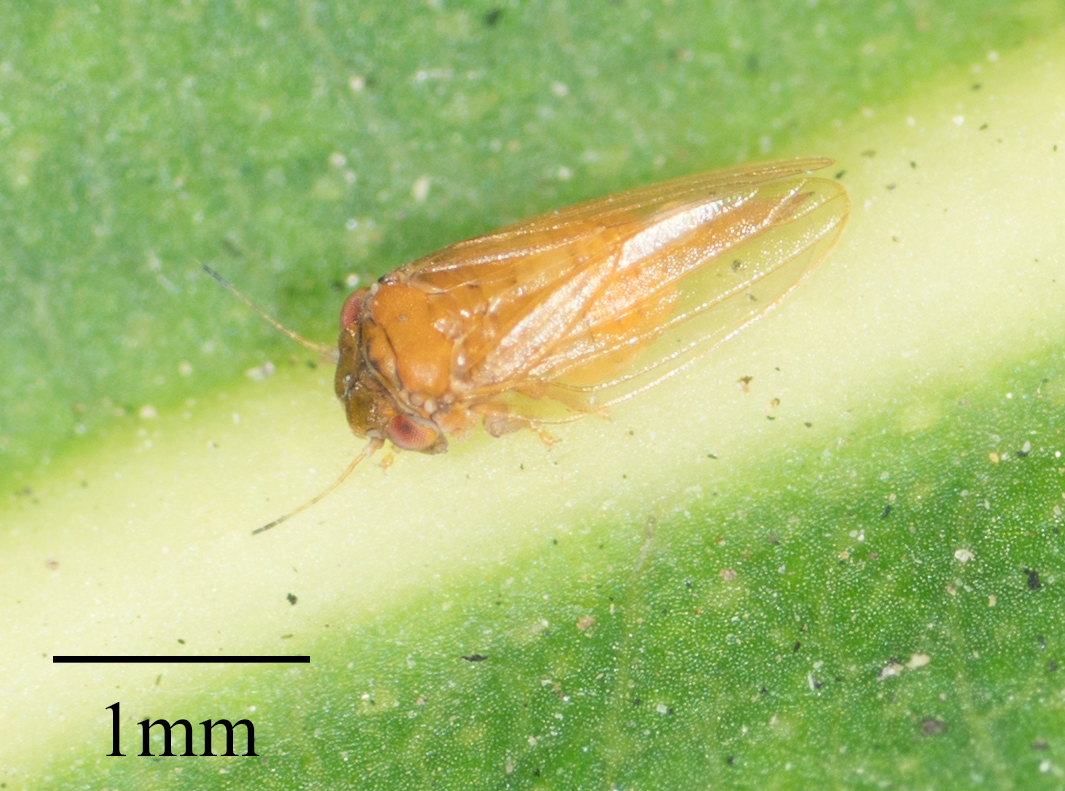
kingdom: Animalia
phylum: Arthropoda
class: Insecta
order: Hemiptera
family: Aphalaridae
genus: Ctenarytaina
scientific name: Ctenarytaina longicauda
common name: Tristania psyllid
